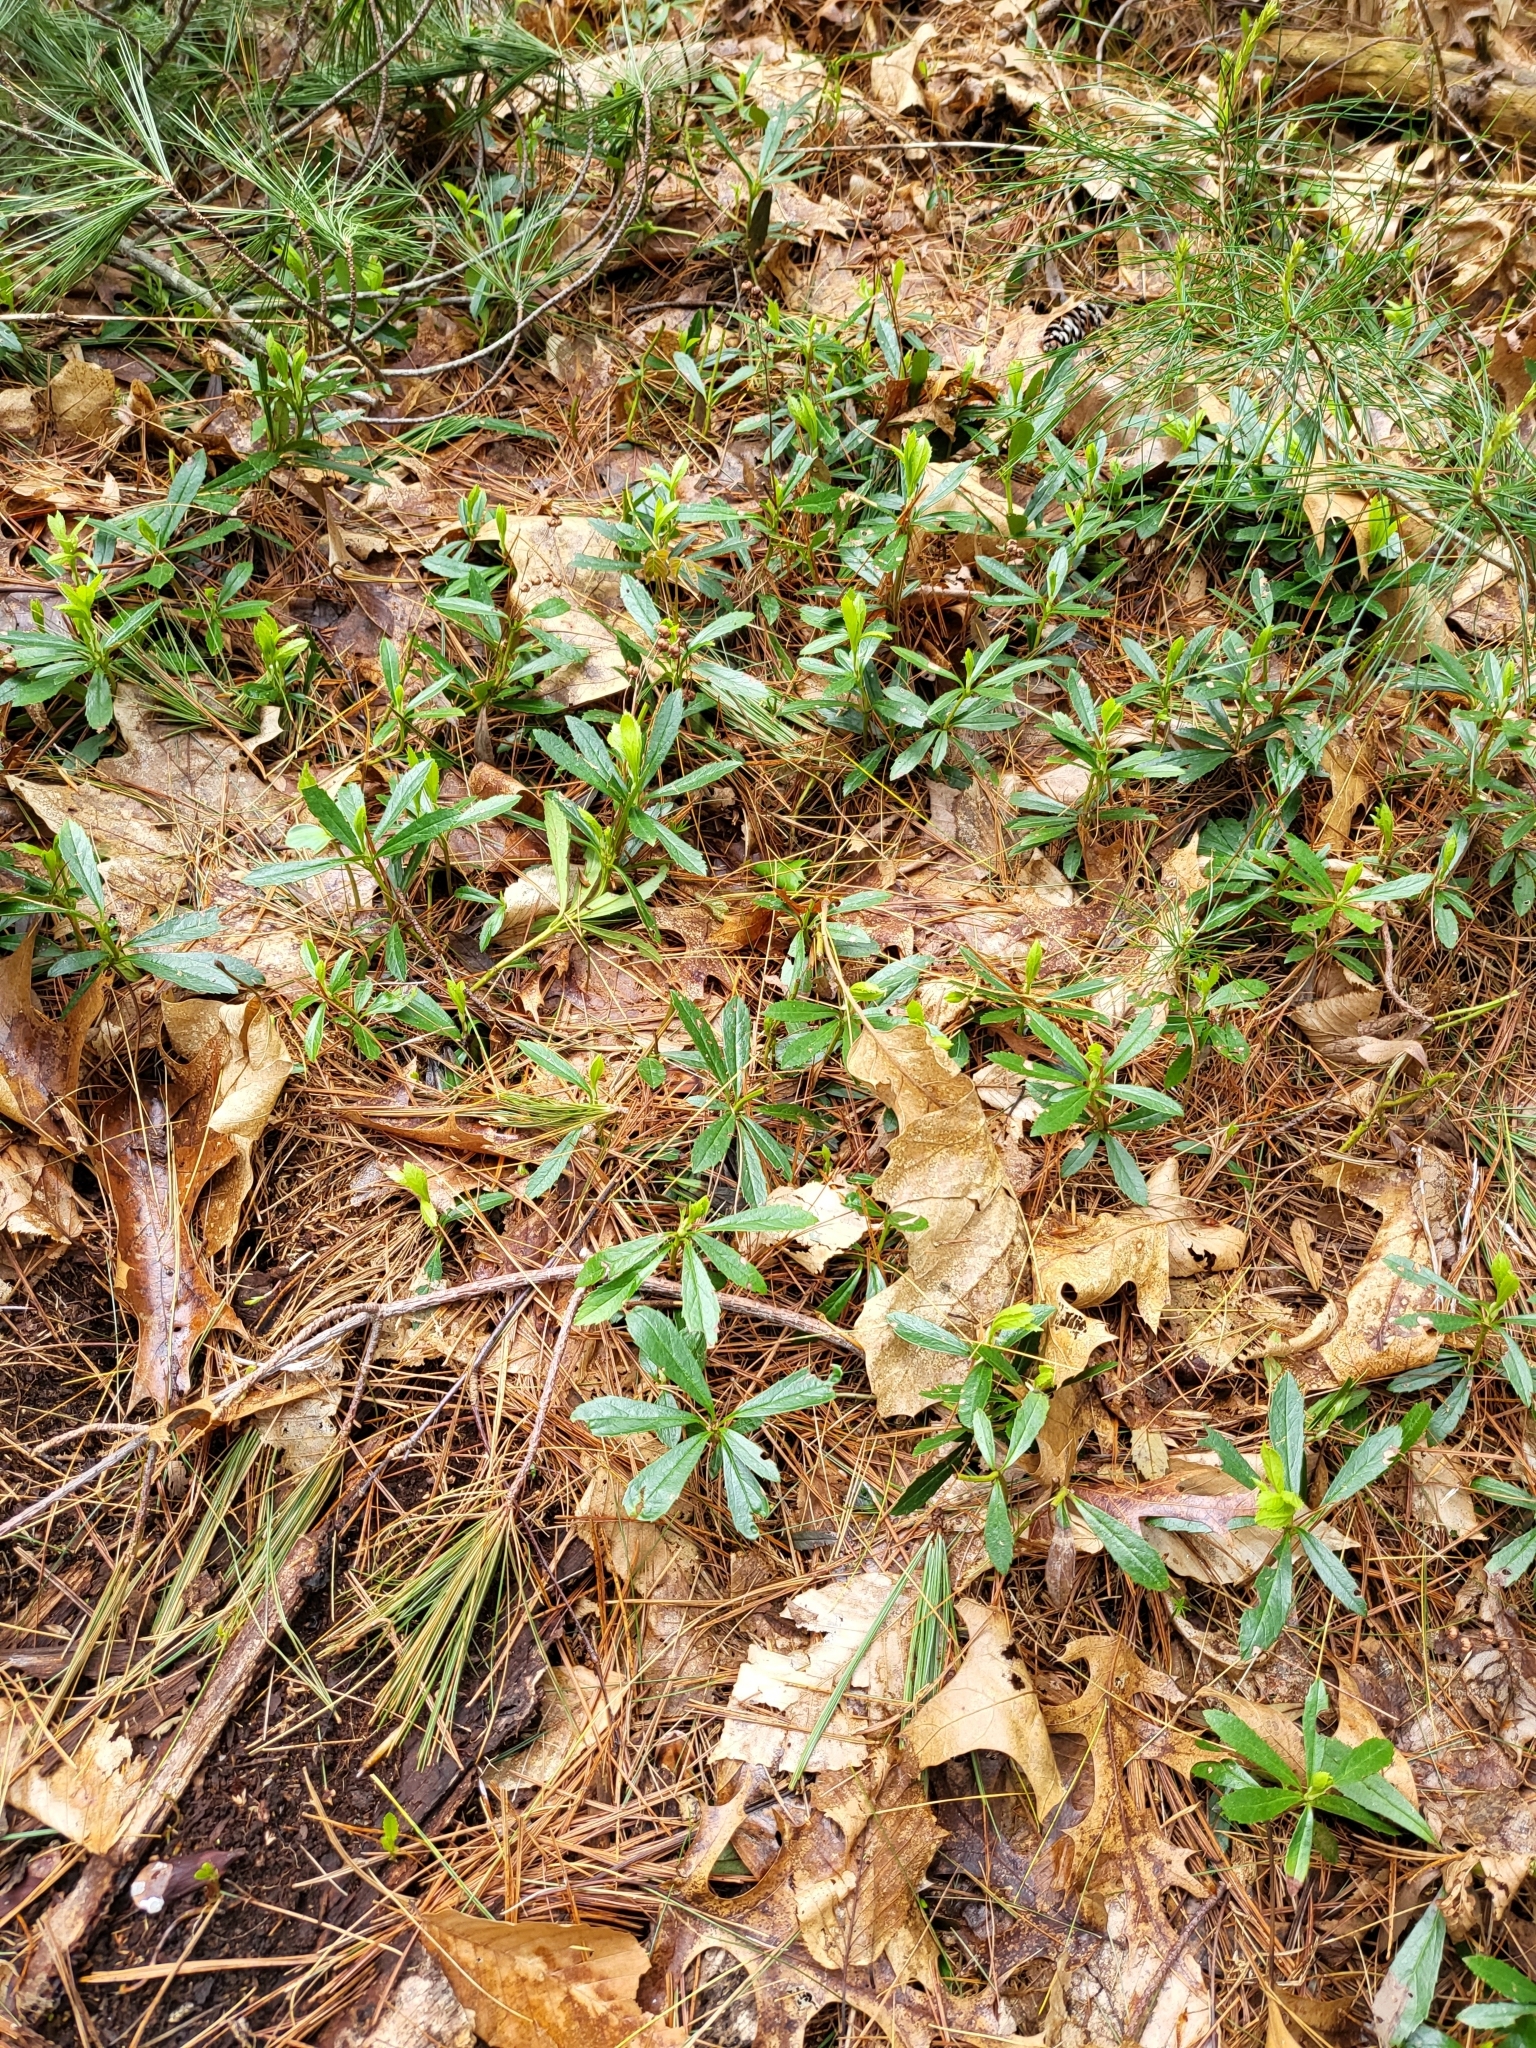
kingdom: Plantae
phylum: Tracheophyta
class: Magnoliopsida
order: Ericales
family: Ericaceae
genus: Chimaphila
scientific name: Chimaphila umbellata
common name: Pipsissewa
